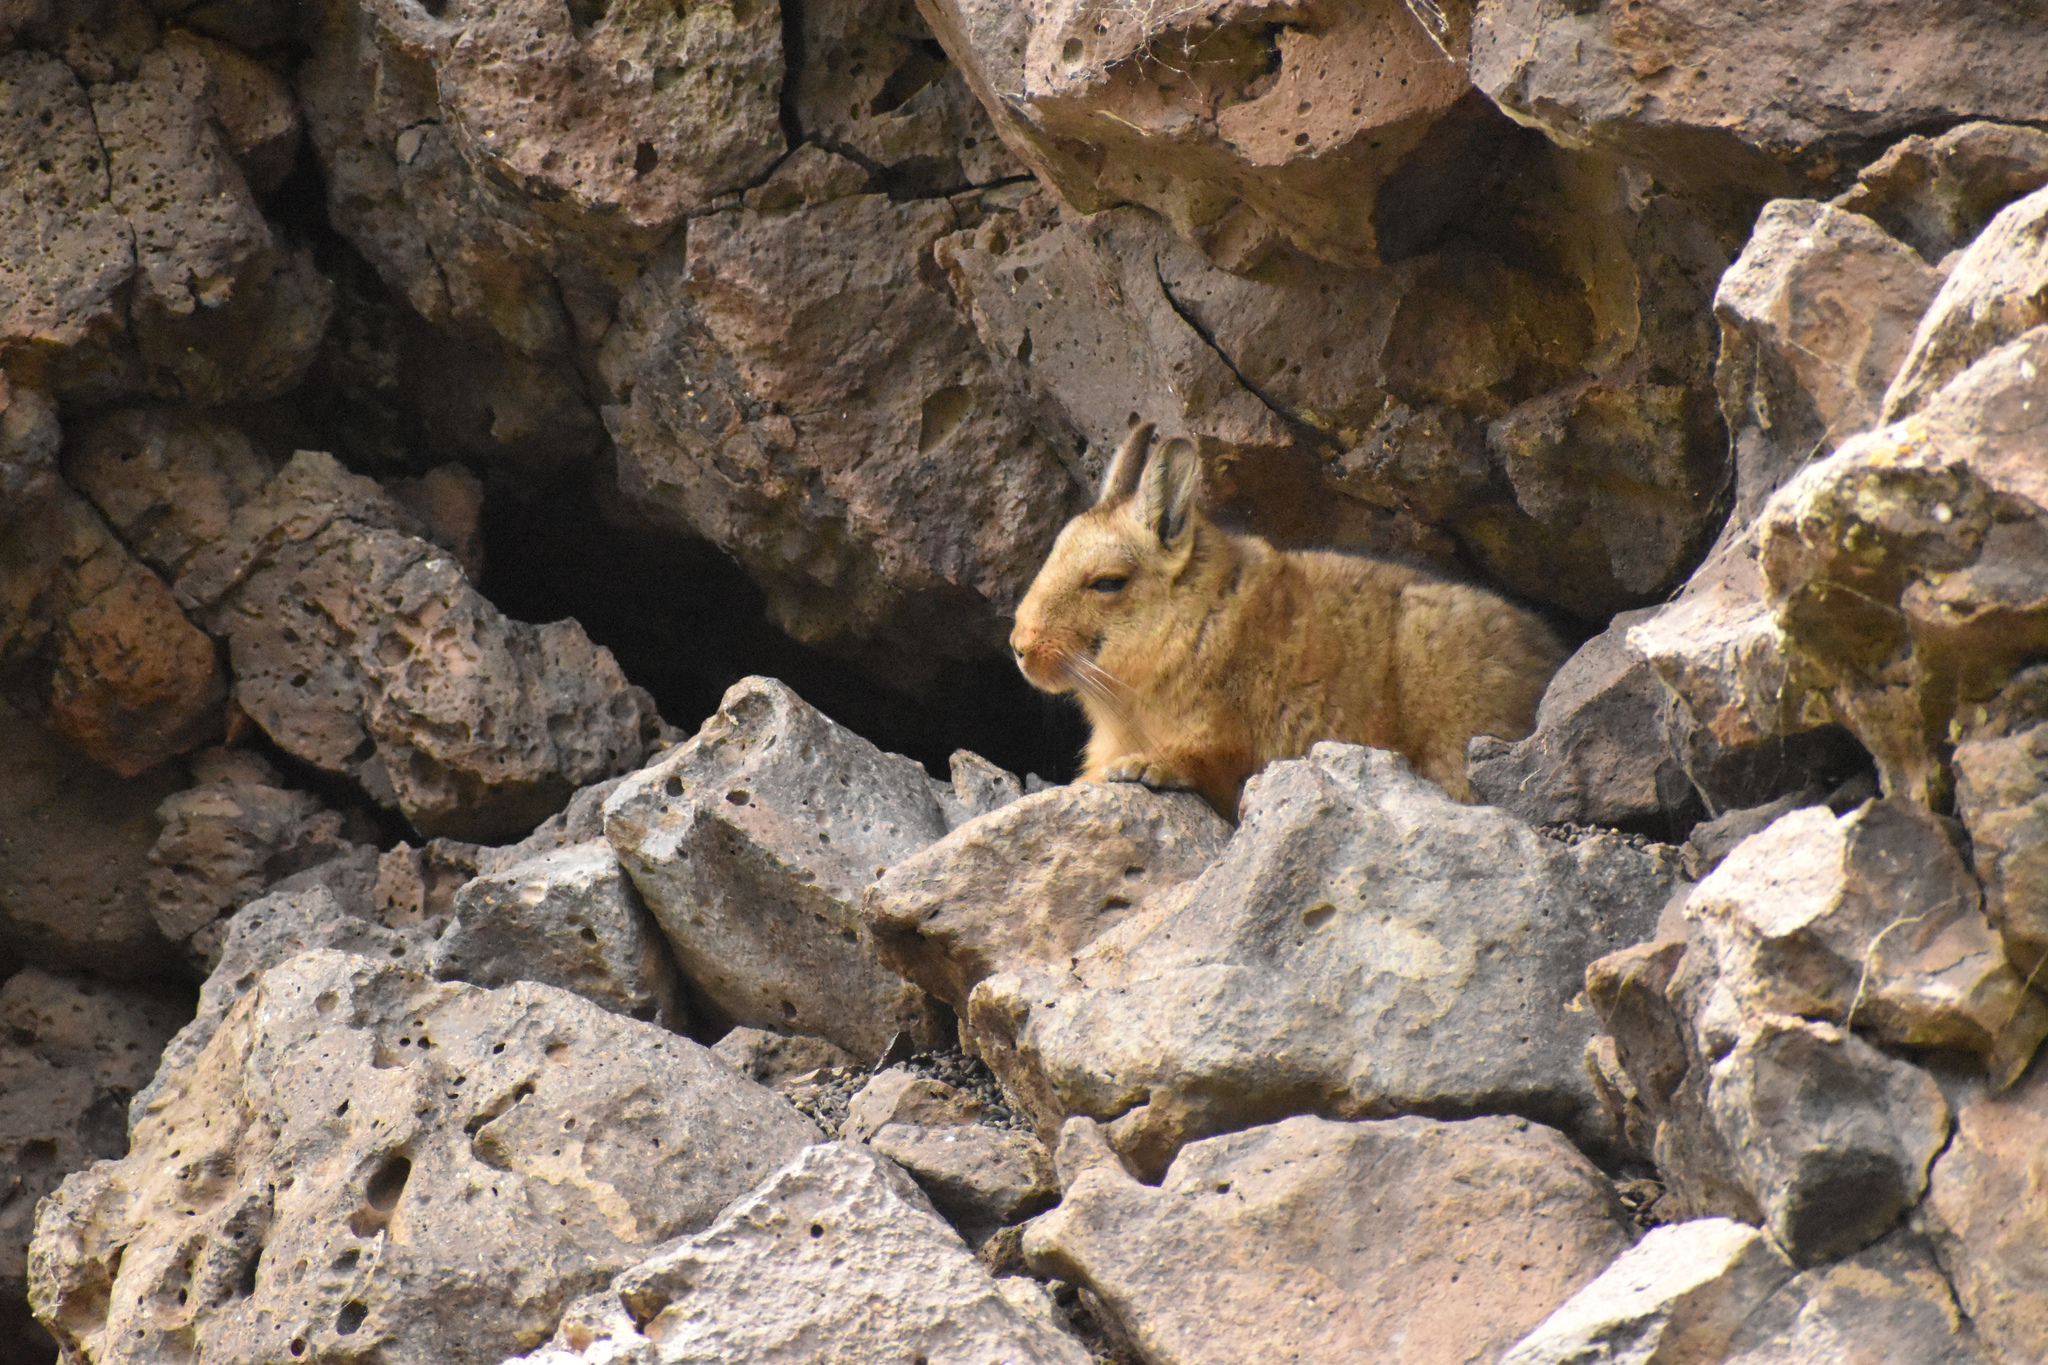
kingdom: Animalia
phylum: Chordata
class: Mammalia
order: Rodentia
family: Chinchillidae
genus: Lagidium
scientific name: Lagidium wolffsohni
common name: Wolffsohn's viscacha
